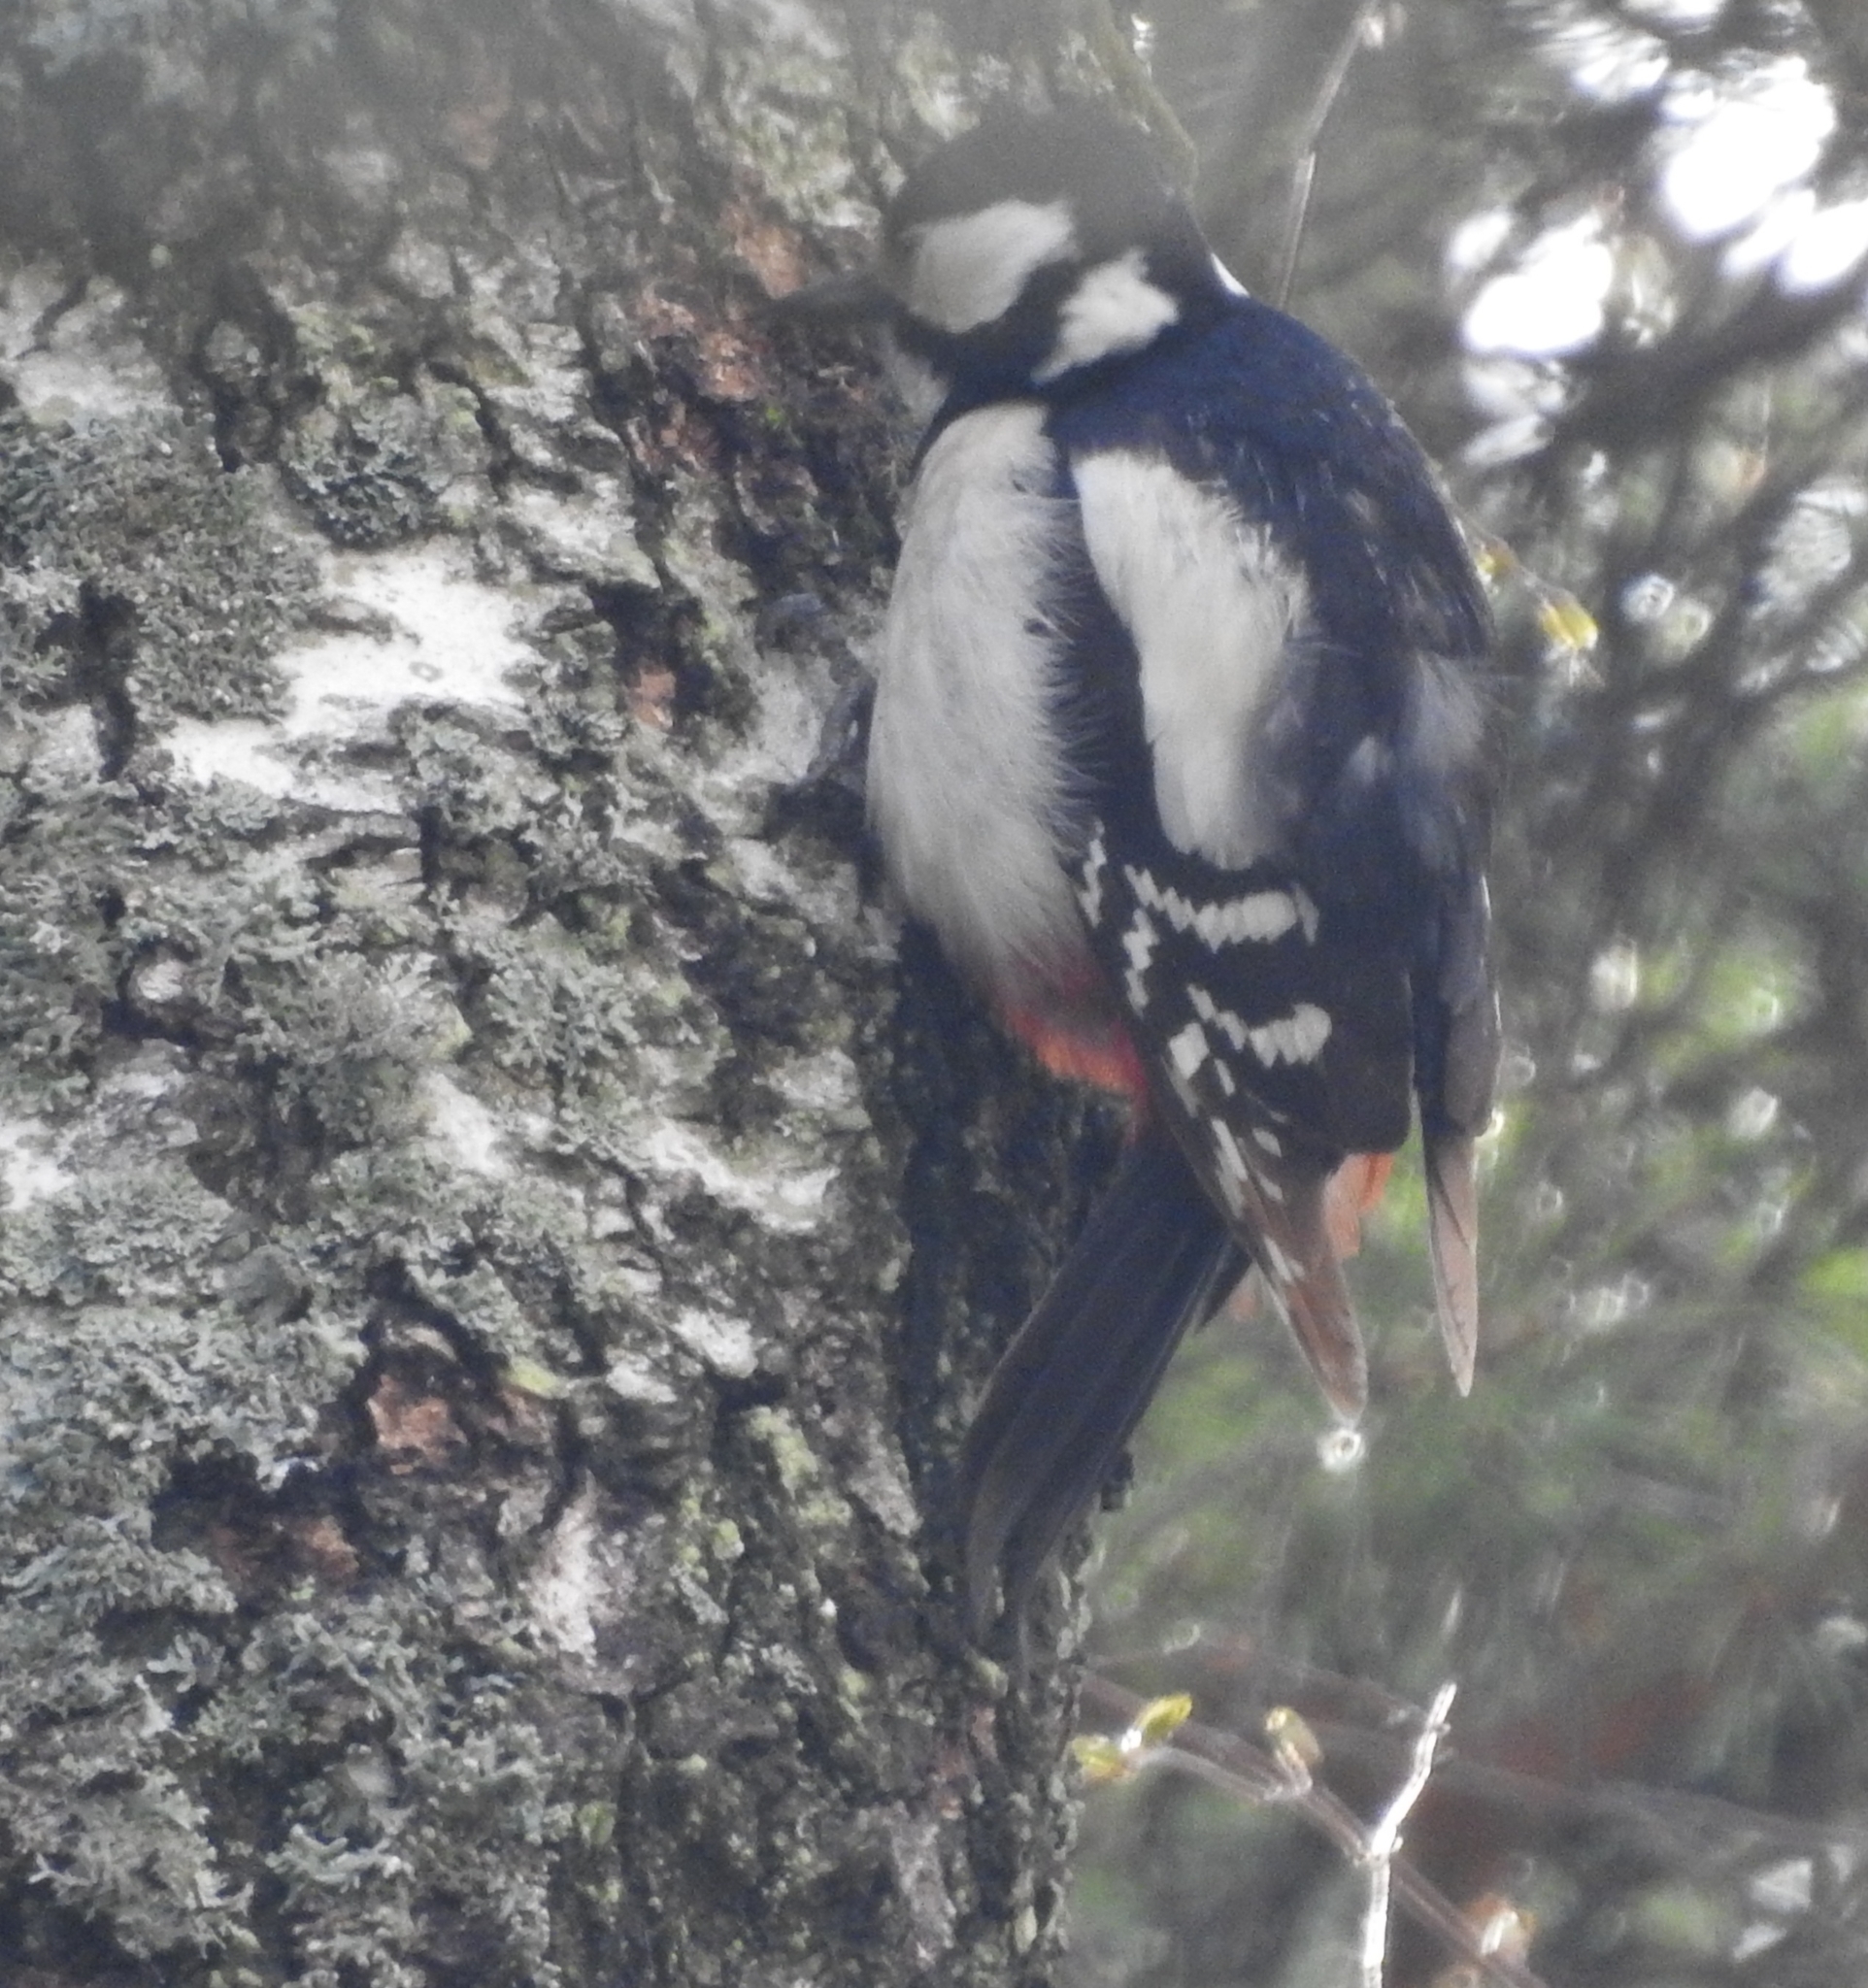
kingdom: Animalia
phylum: Chordata
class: Aves
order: Piciformes
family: Picidae
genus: Dendrocopos
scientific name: Dendrocopos major
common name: Great spotted woodpecker
